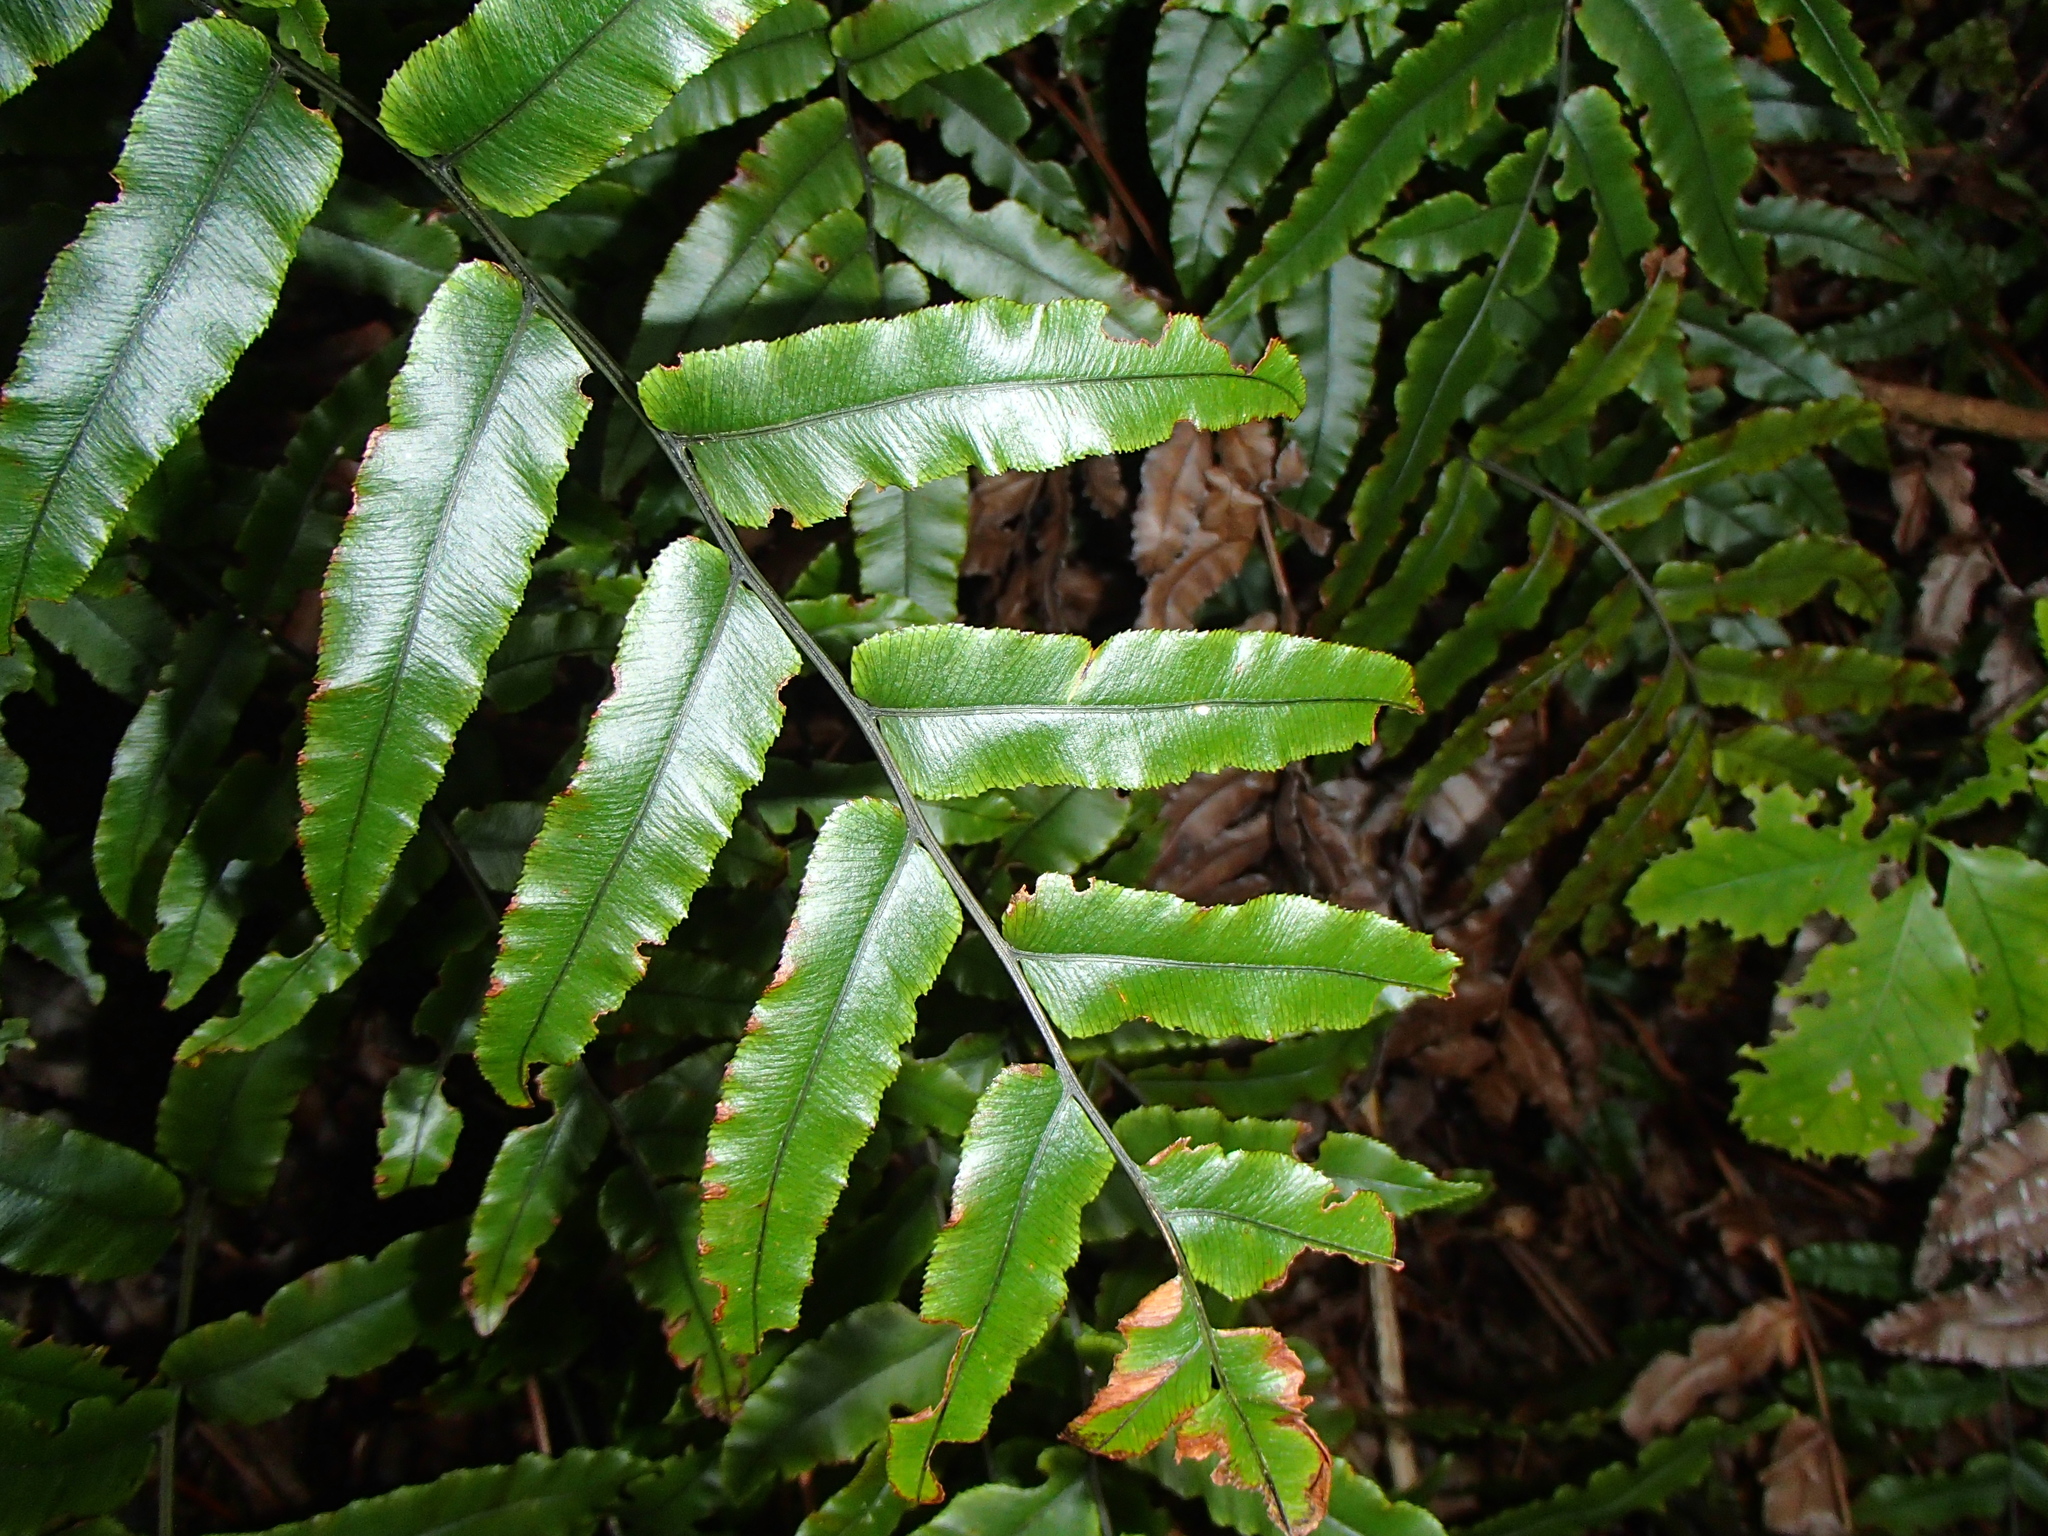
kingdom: Plantae
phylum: Tracheophyta
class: Polypodiopsida
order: Polypodiales
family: Blechnaceae
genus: Parablechnum
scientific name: Parablechnum procerum
